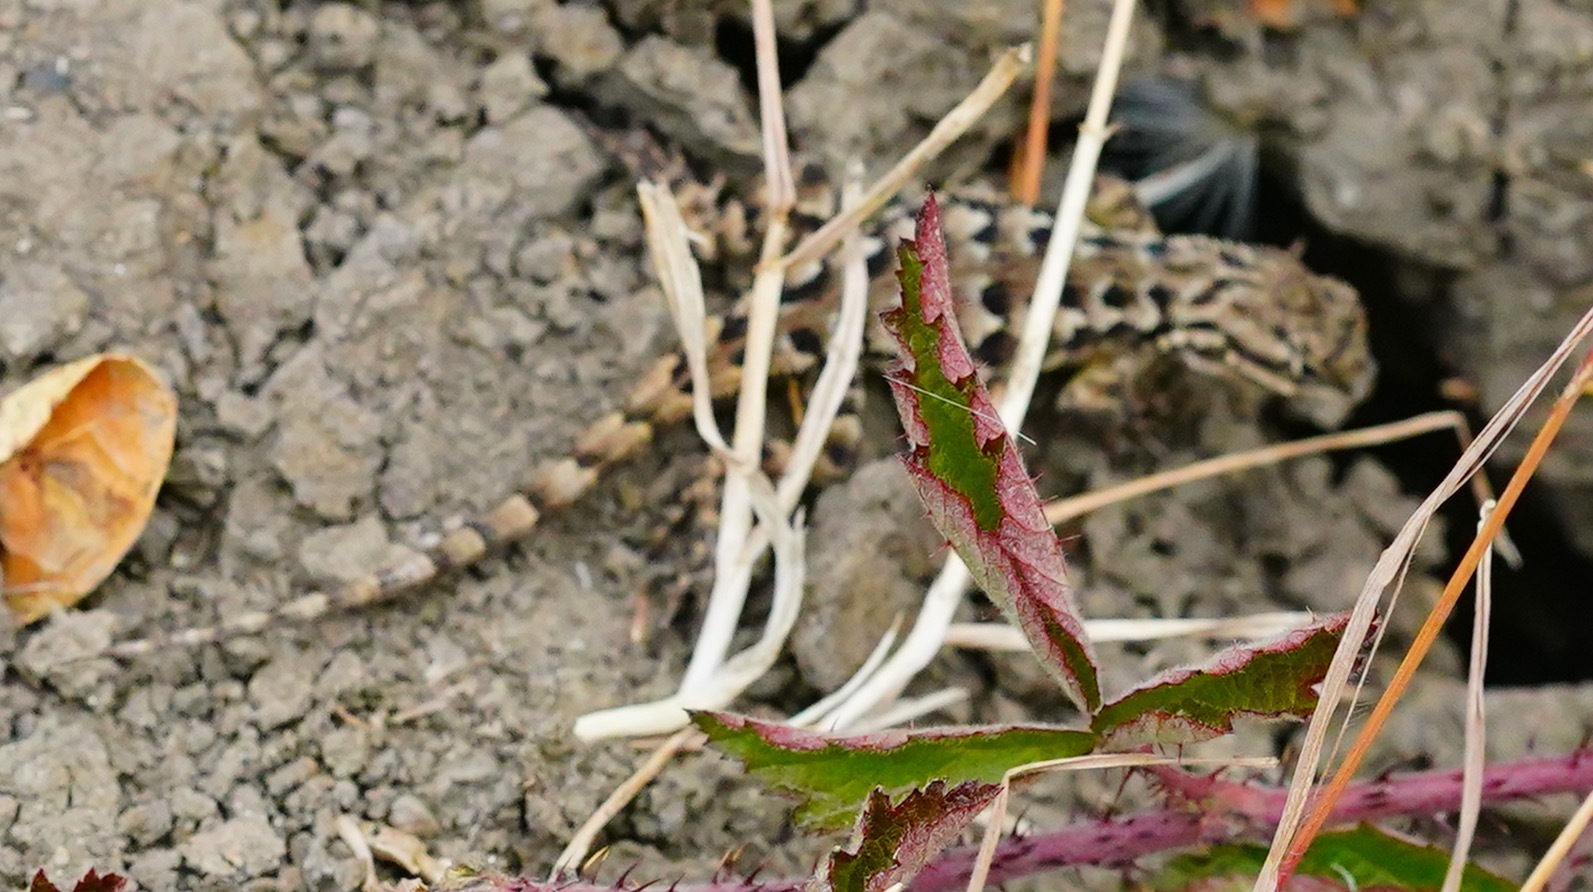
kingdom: Animalia
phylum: Chordata
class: Squamata
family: Phrynosomatidae
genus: Sceloporus
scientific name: Sceloporus occidentalis
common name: Western fence lizard
